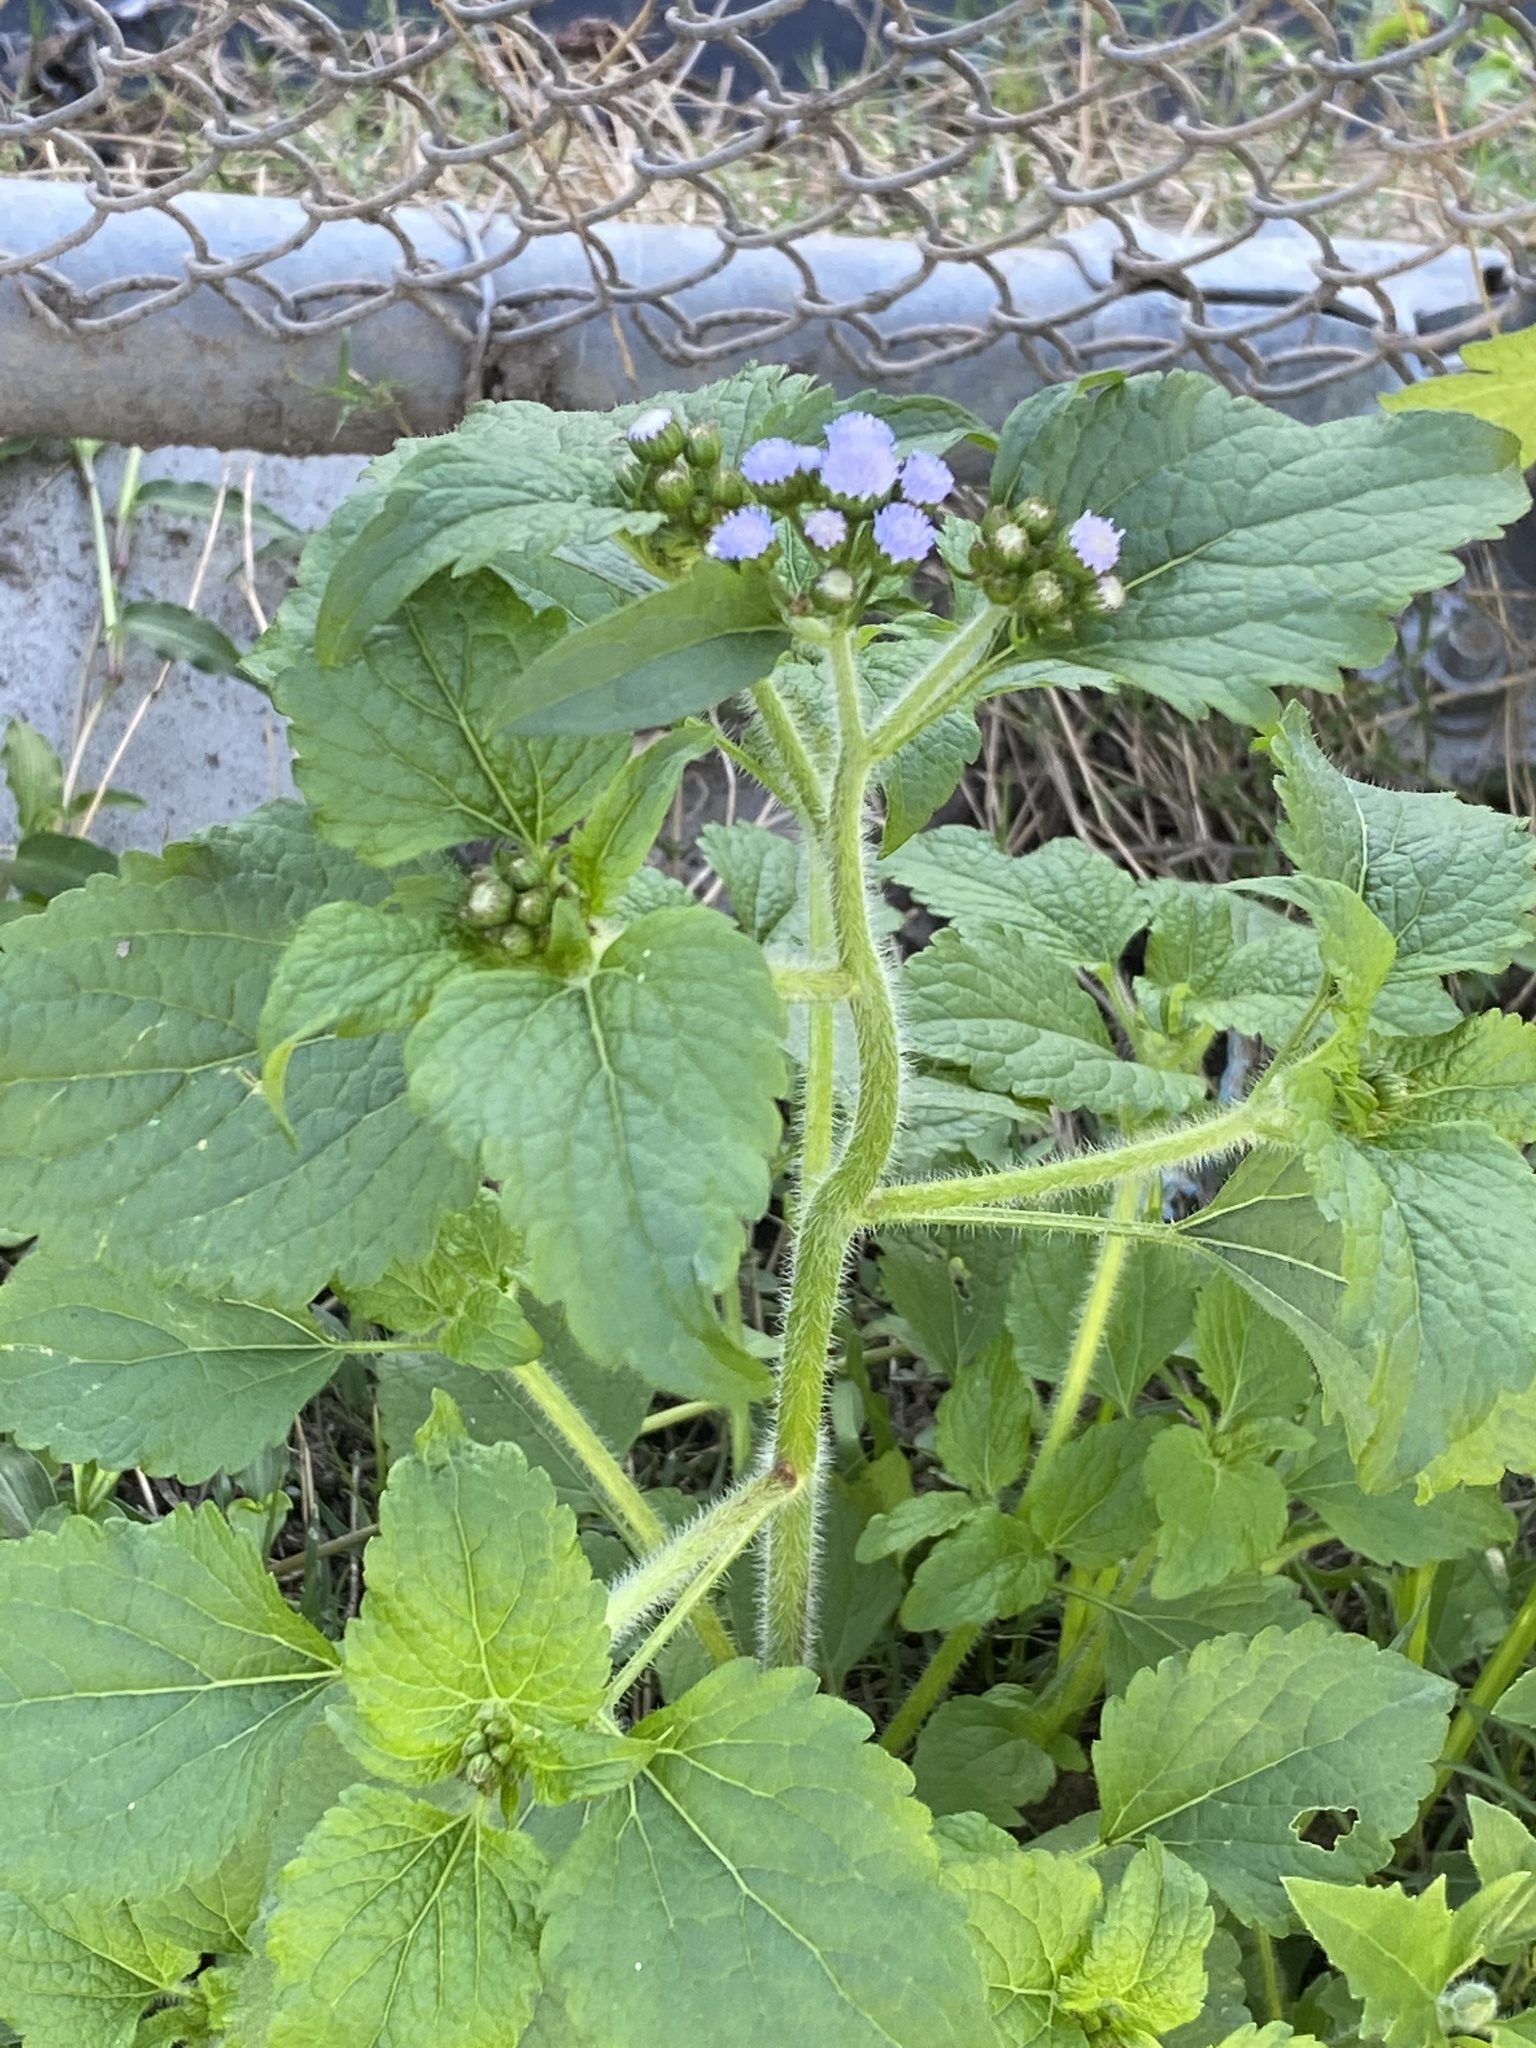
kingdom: Plantae
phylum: Tracheophyta
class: Magnoliopsida
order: Asterales
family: Asteraceae
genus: Ageratum
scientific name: Ageratum conyzoides
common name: Tropical whiteweed
